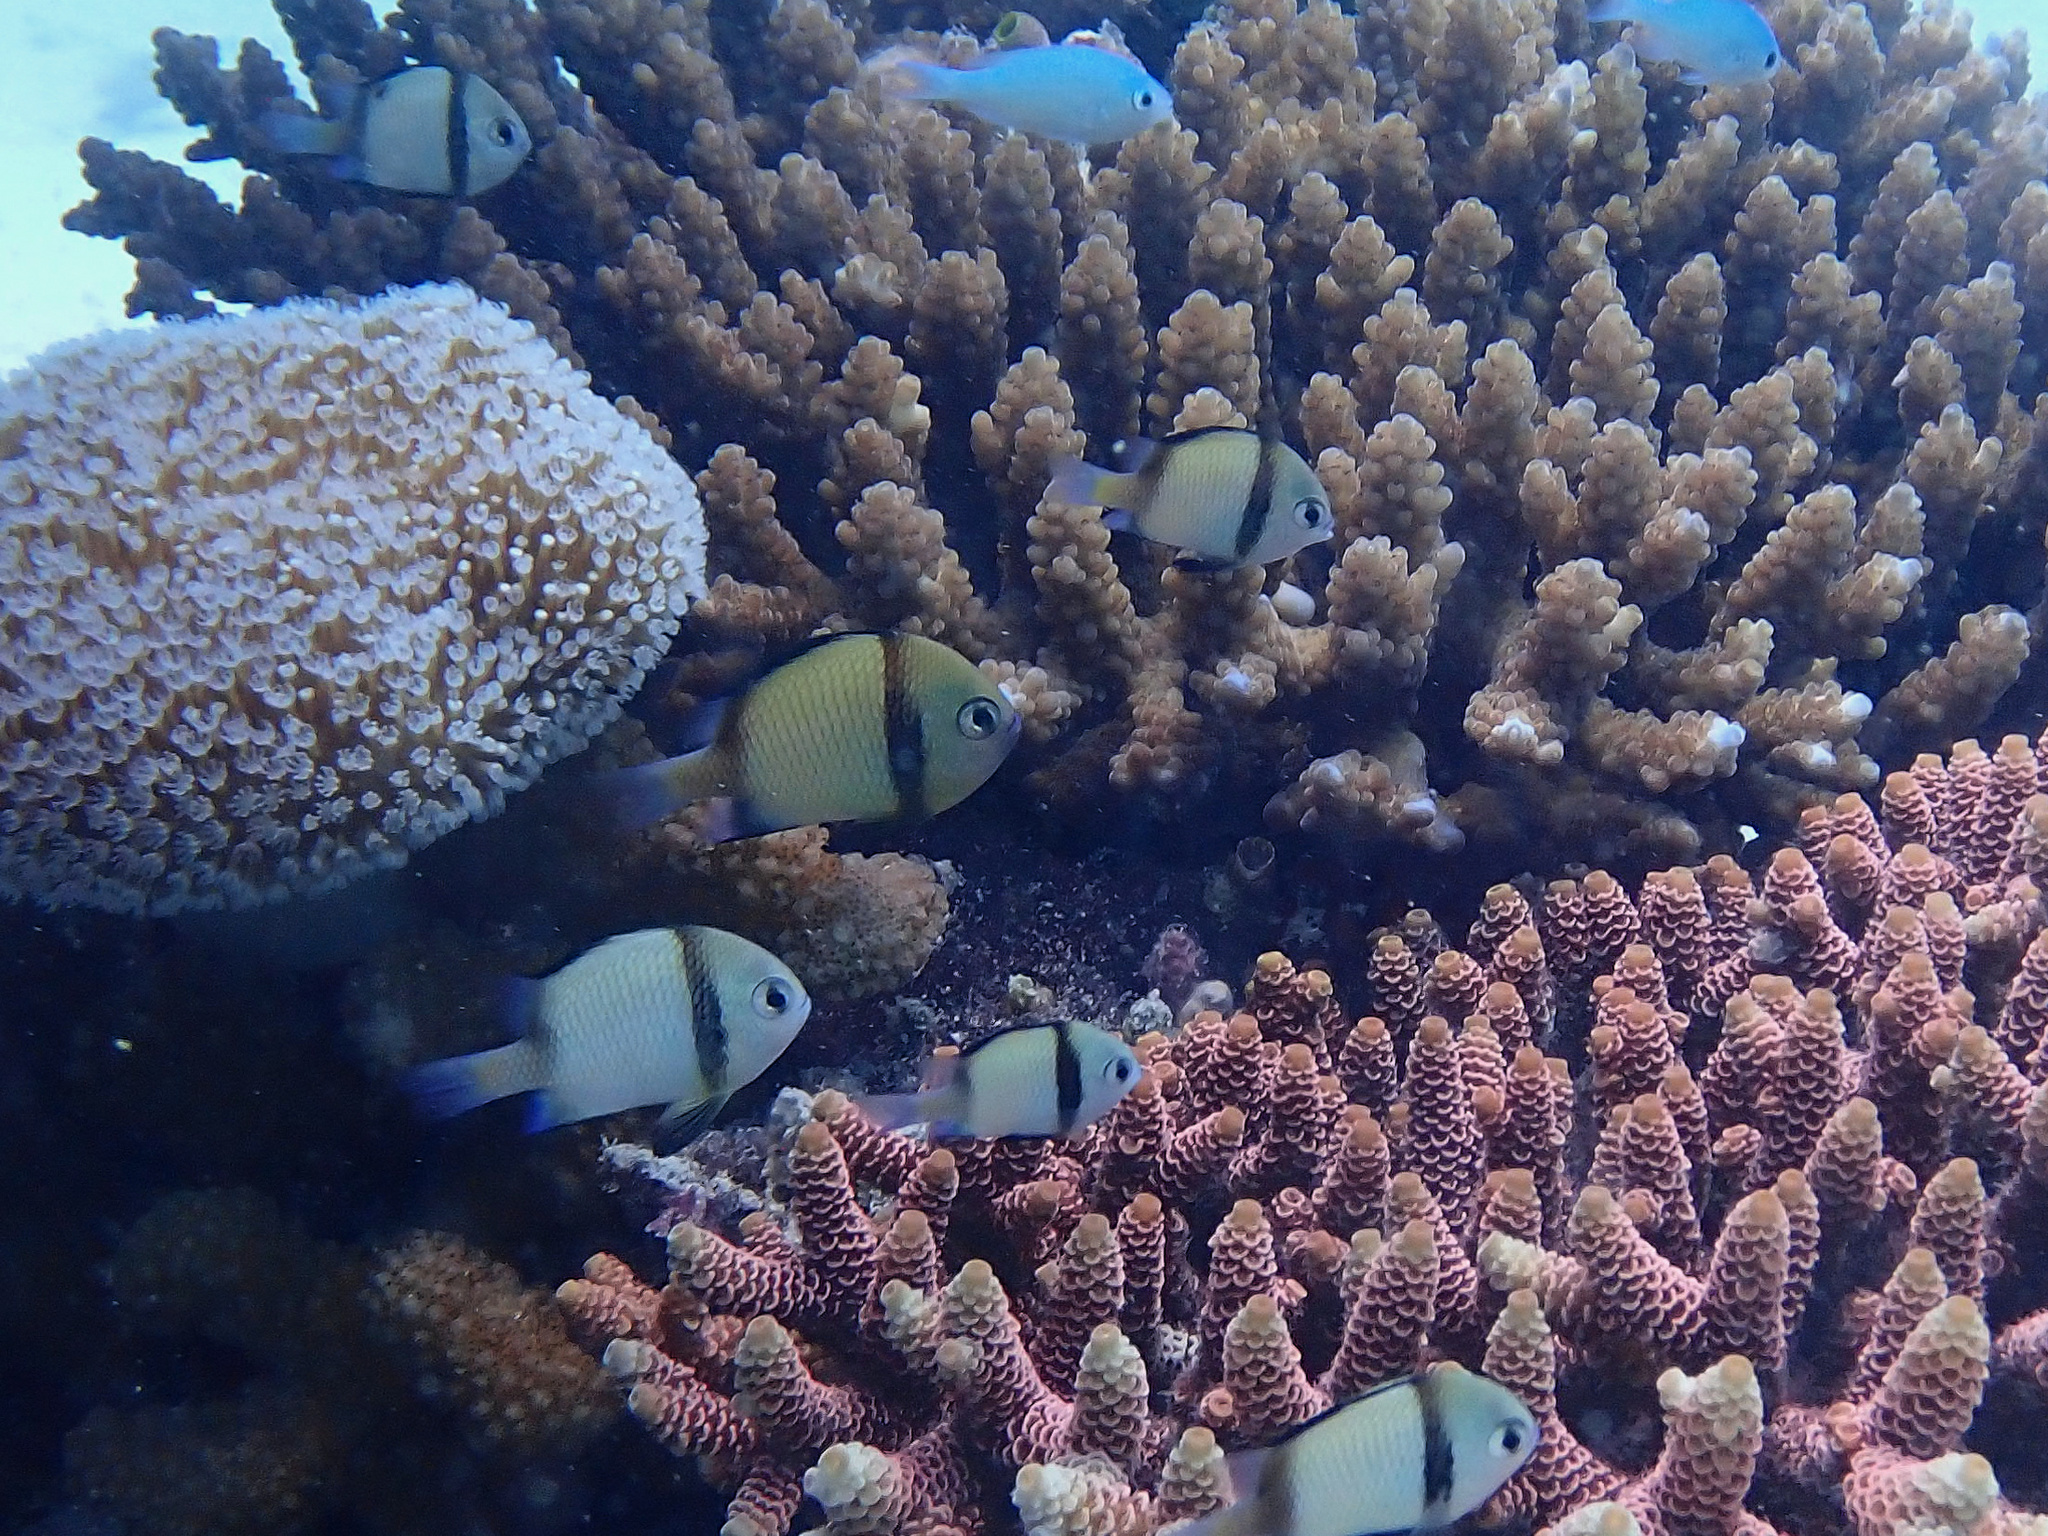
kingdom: Animalia
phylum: Chordata
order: Perciformes
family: Pomacentridae
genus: Dascyllus
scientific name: Dascyllus reticulatus
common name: Reticulated dascyllus
